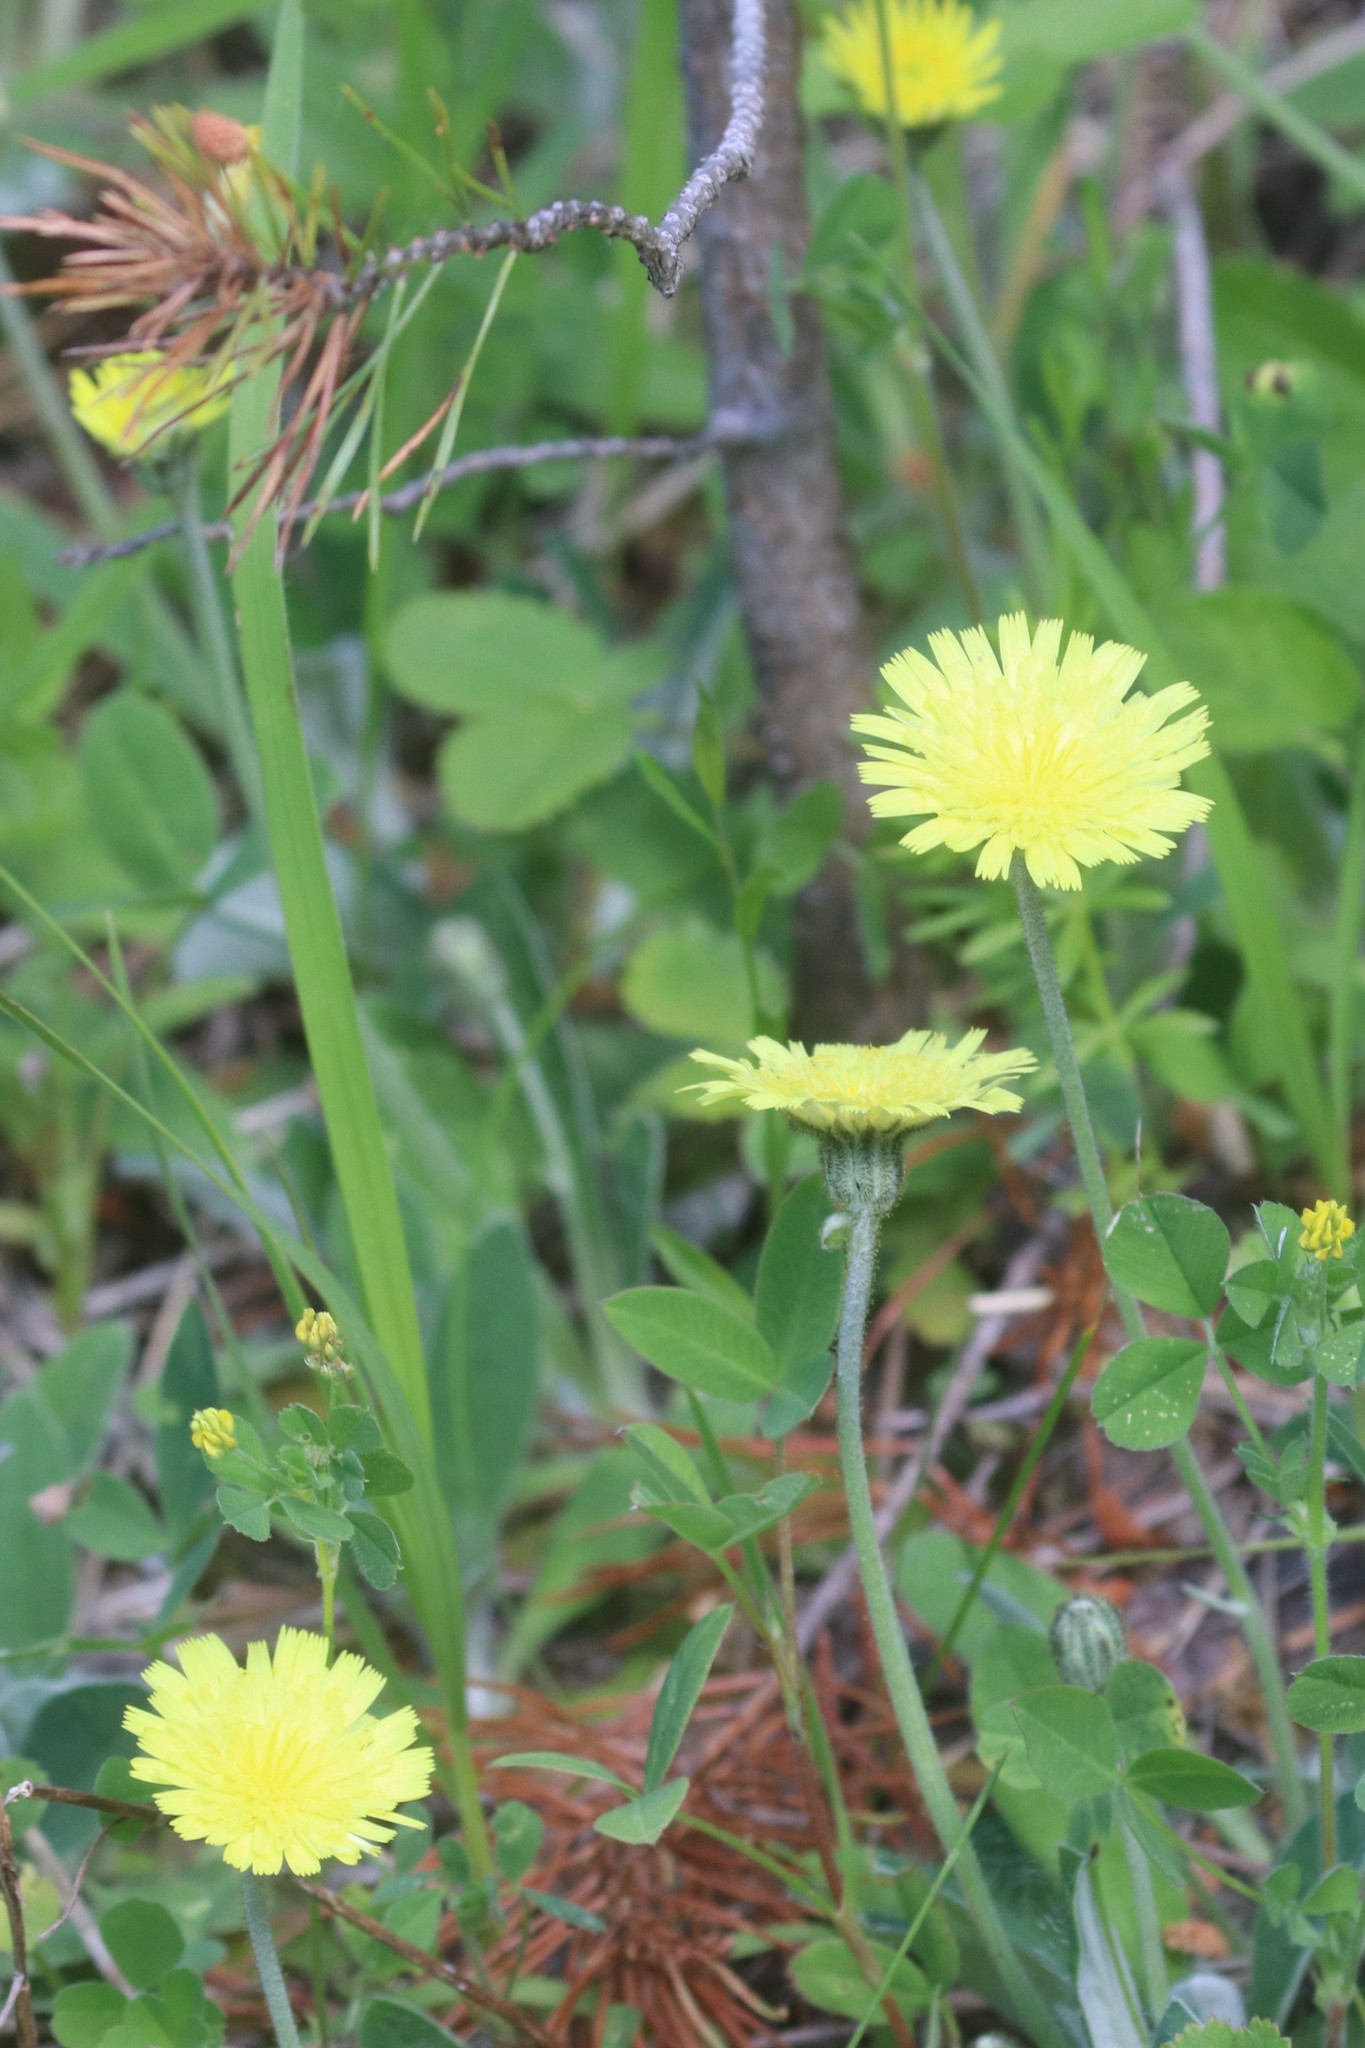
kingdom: Plantae
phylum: Tracheophyta
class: Magnoliopsida
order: Asterales
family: Asteraceae
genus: Pilosella
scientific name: Pilosella officinarum
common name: Mouse-ear hawkweed
